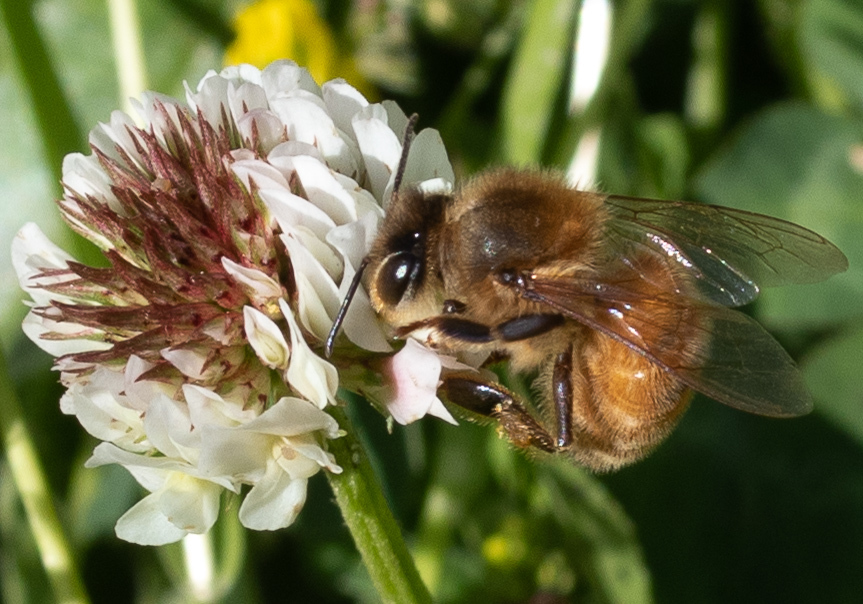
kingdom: Animalia
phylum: Arthropoda
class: Insecta
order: Hymenoptera
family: Apidae
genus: Apis
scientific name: Apis mellifera
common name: Honey bee
